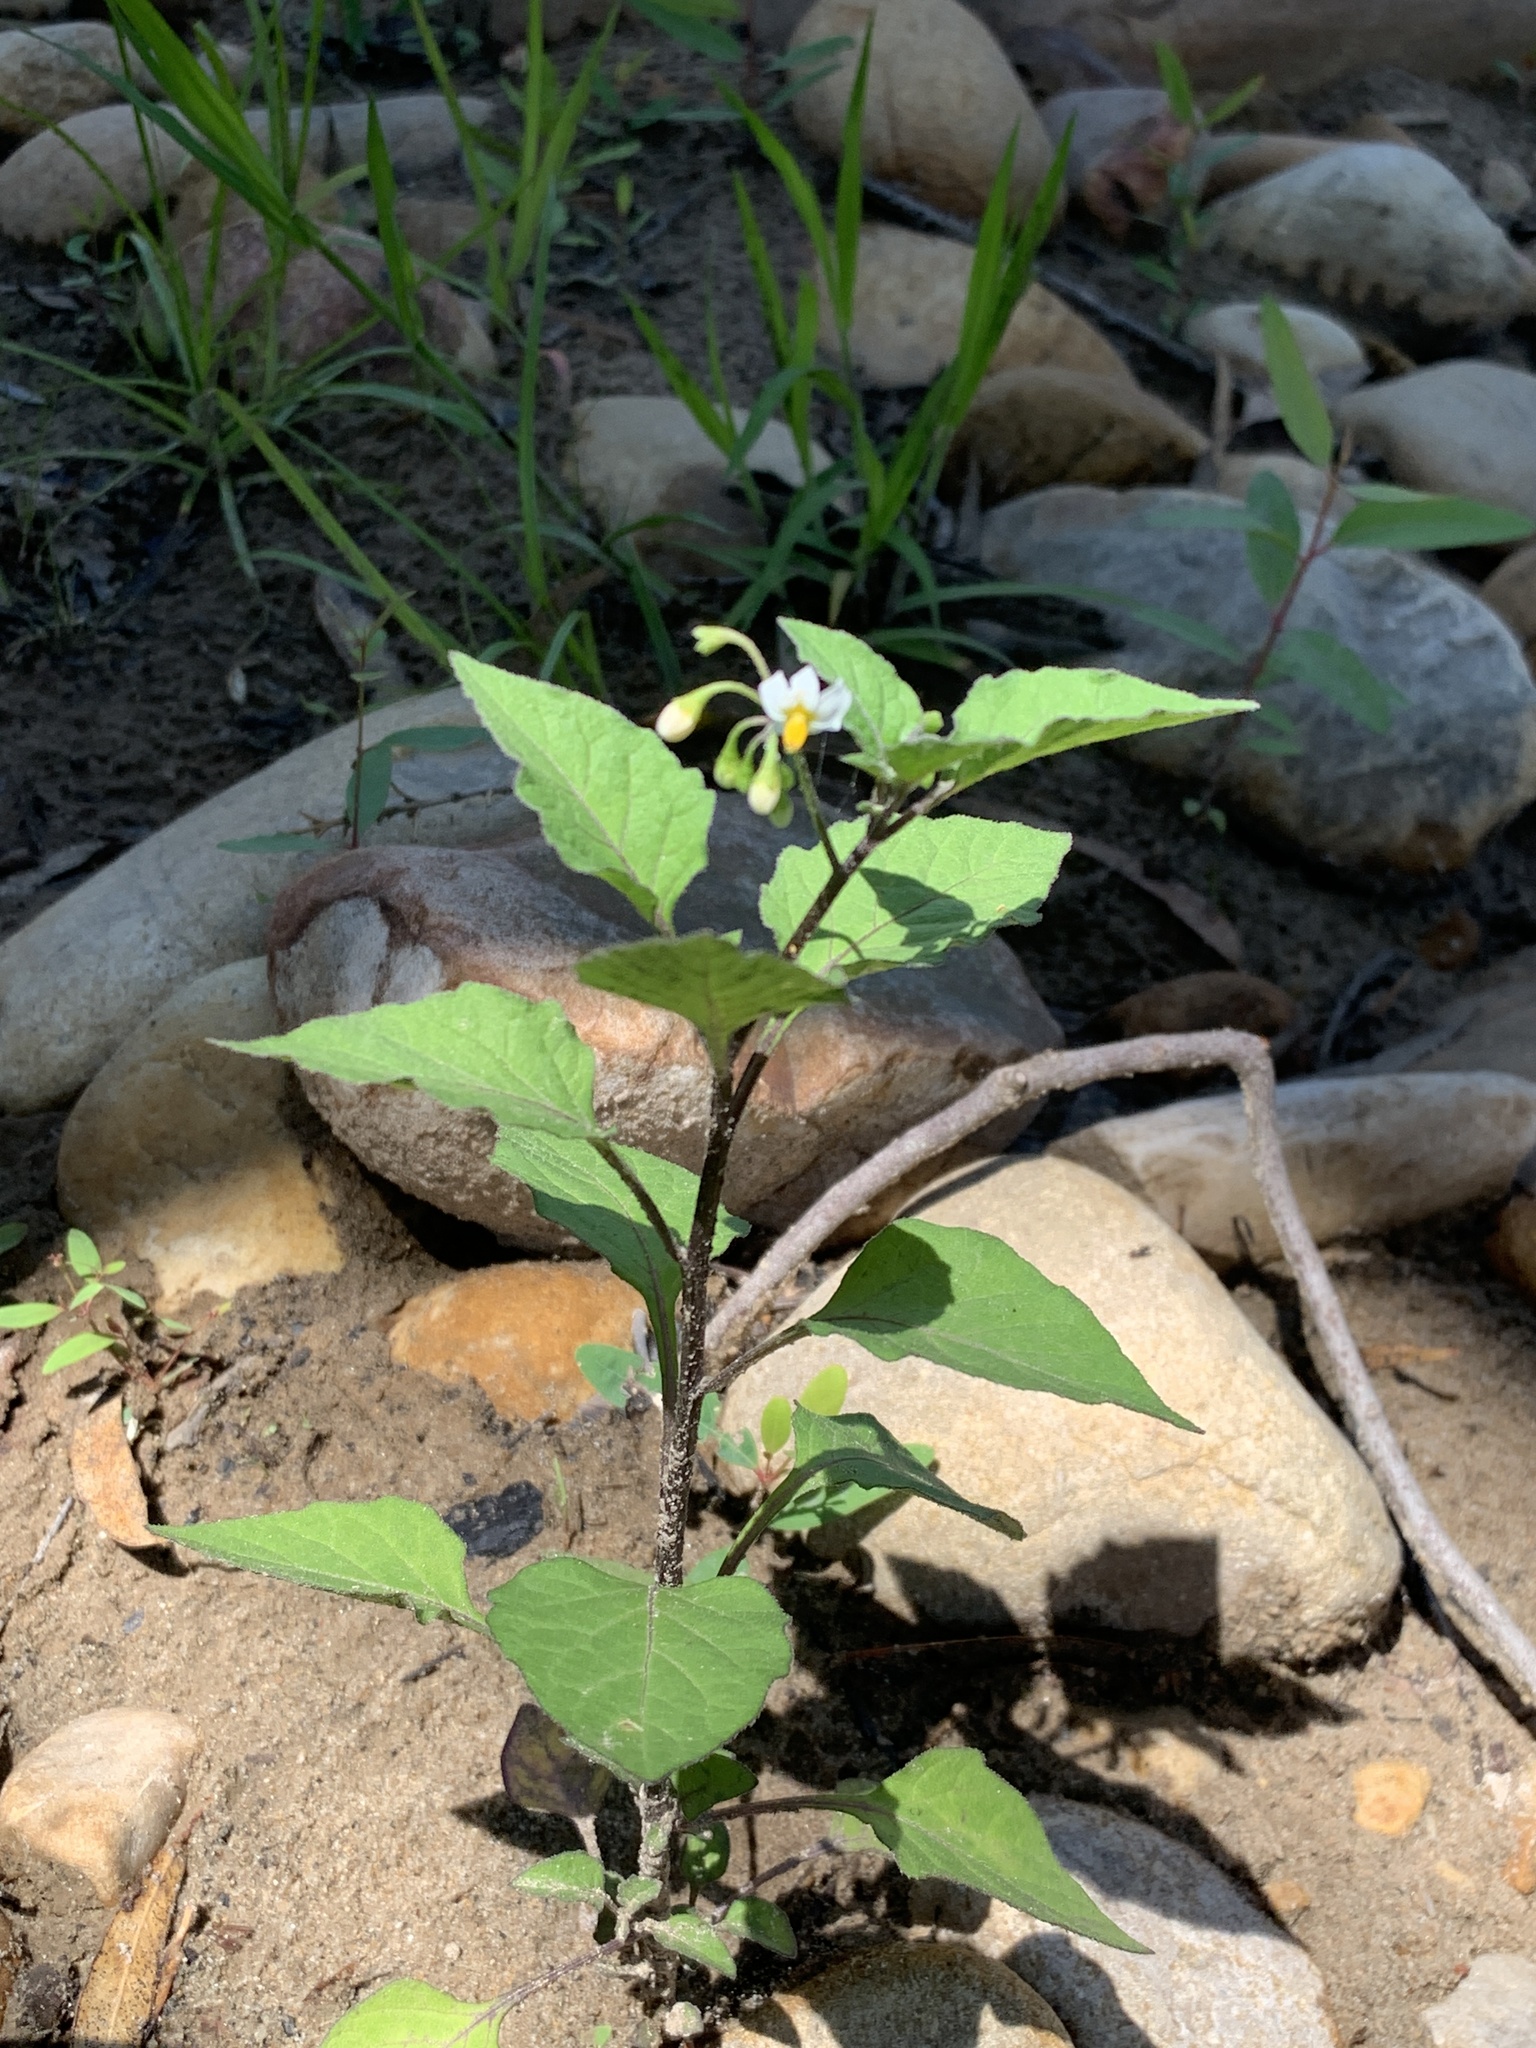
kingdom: Plantae
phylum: Tracheophyta
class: Magnoliopsida
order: Solanales
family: Solanaceae
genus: Solanum
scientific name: Solanum nigrum
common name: Black nightshade
